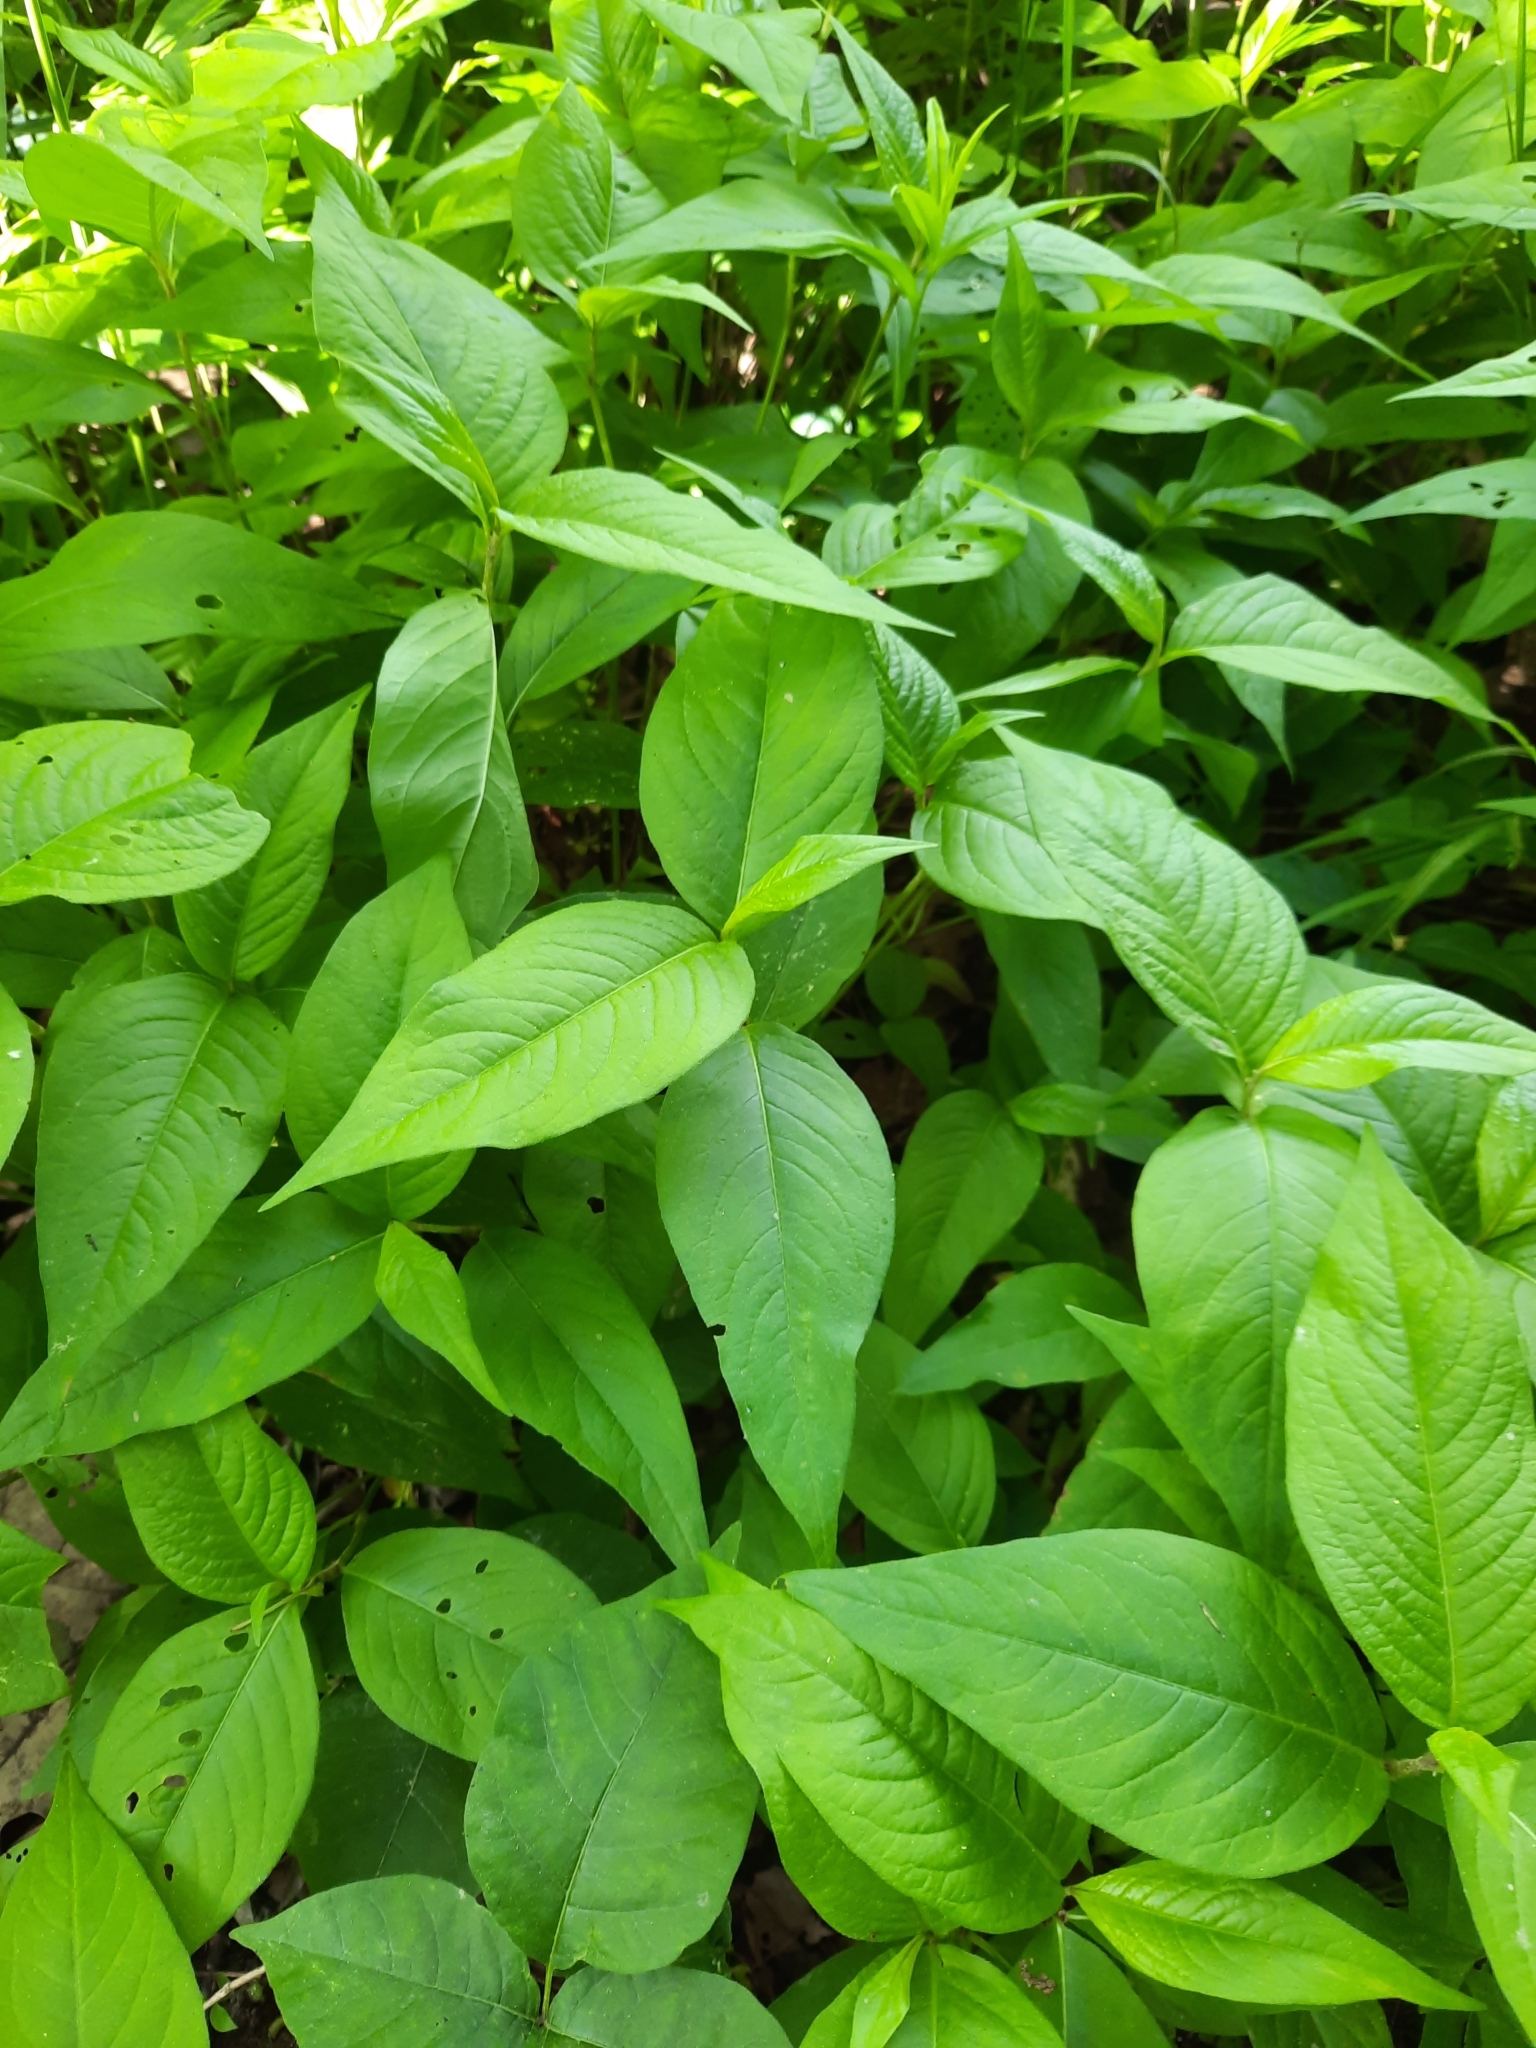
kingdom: Plantae
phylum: Tracheophyta
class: Magnoliopsida
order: Caryophyllales
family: Polygonaceae
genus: Persicaria
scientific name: Persicaria virginiana
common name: Jumpseed
